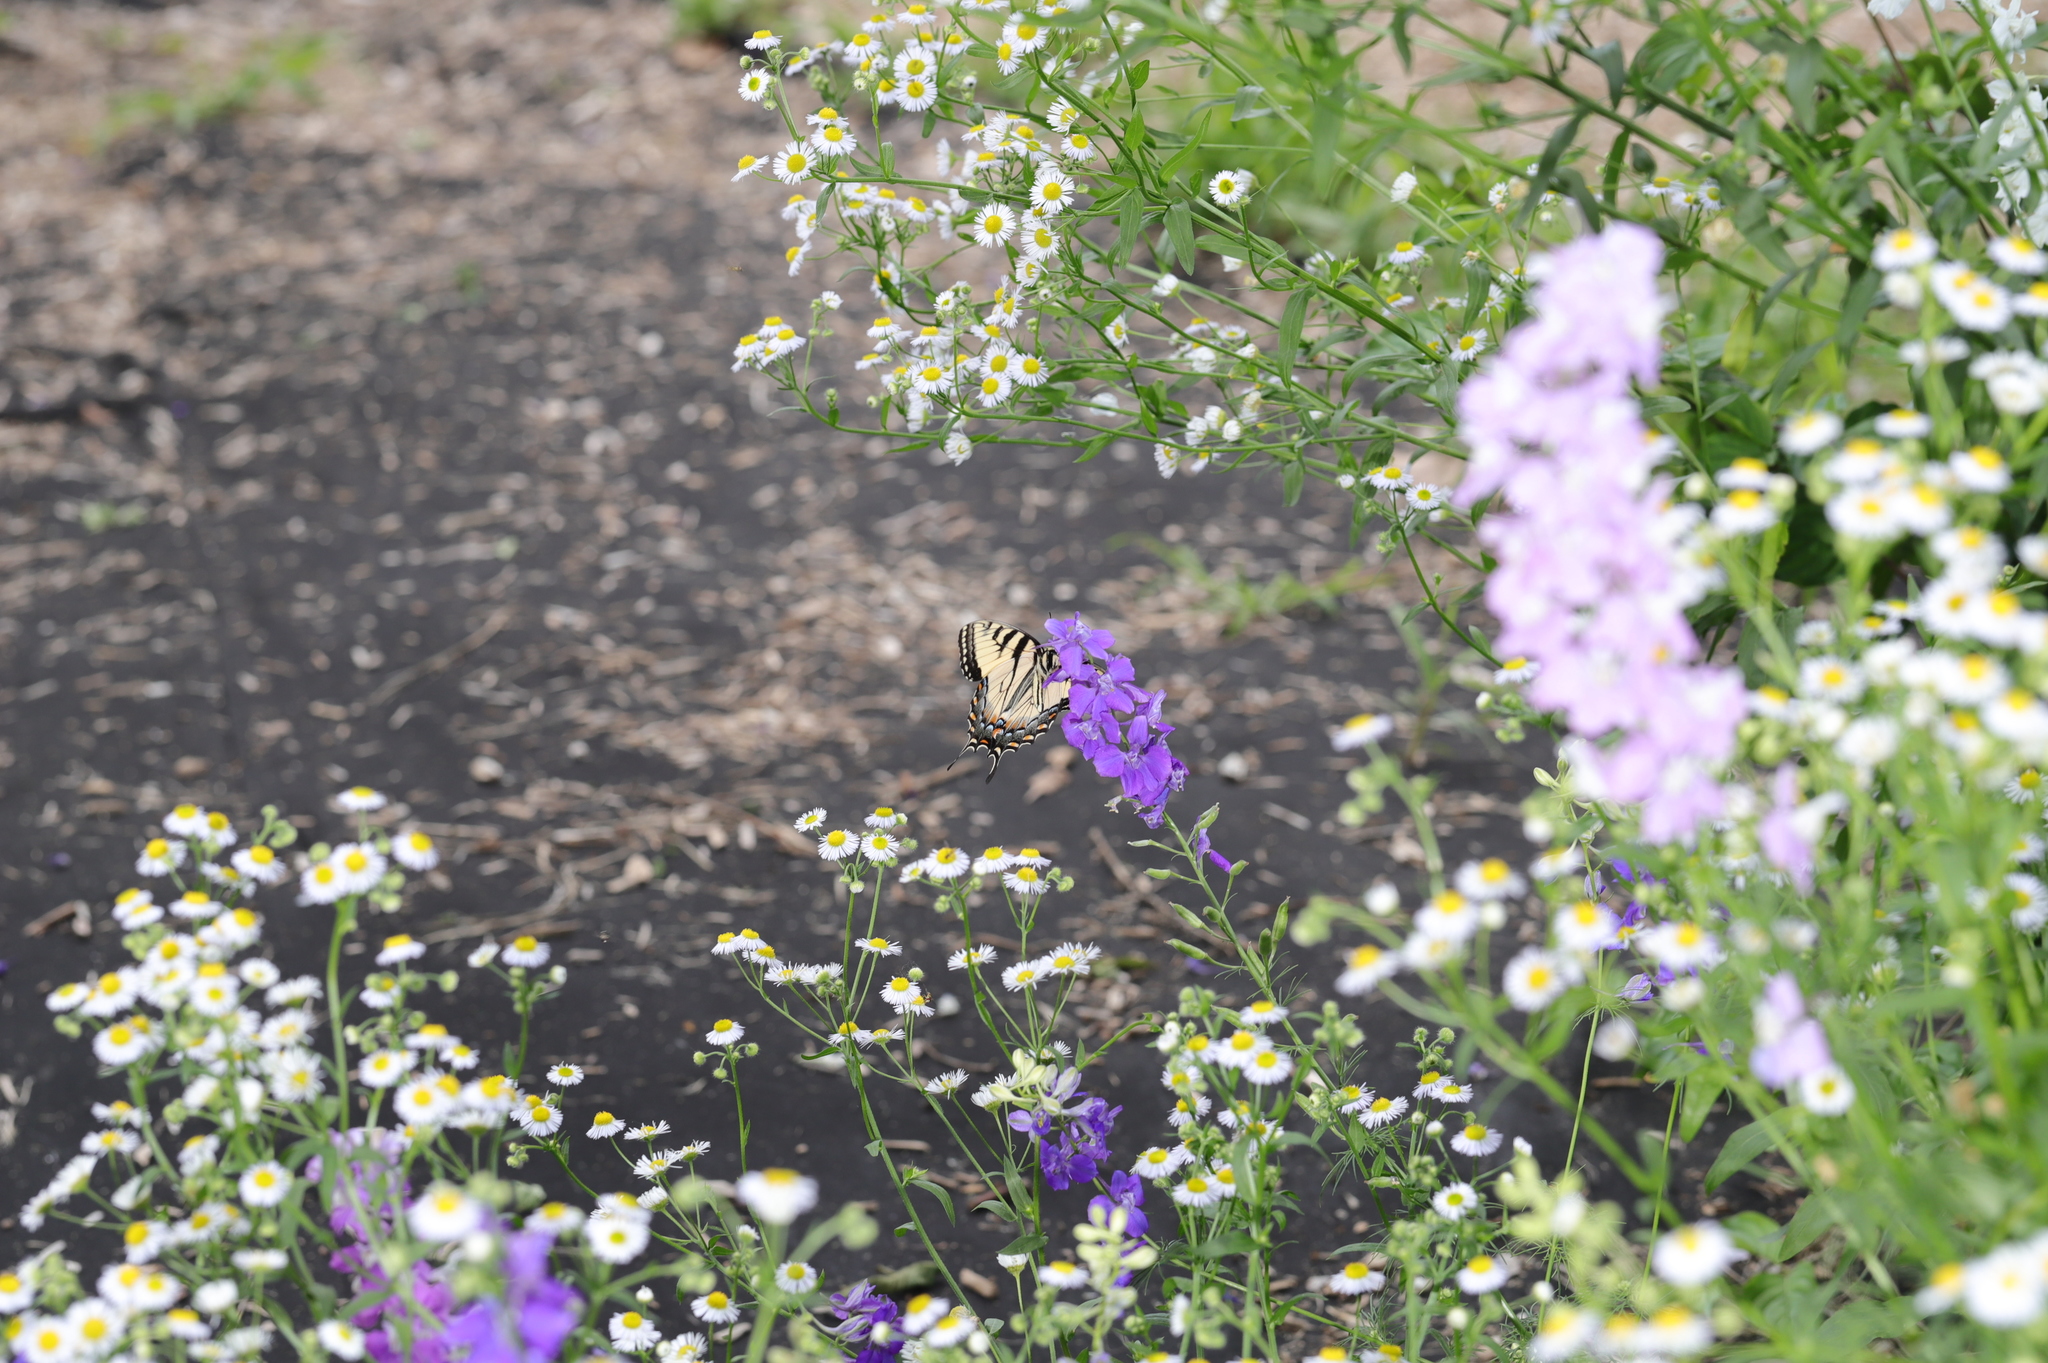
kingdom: Animalia
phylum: Arthropoda
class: Insecta
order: Lepidoptera
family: Papilionidae
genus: Papilio
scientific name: Papilio glaucus
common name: Tiger swallowtail
